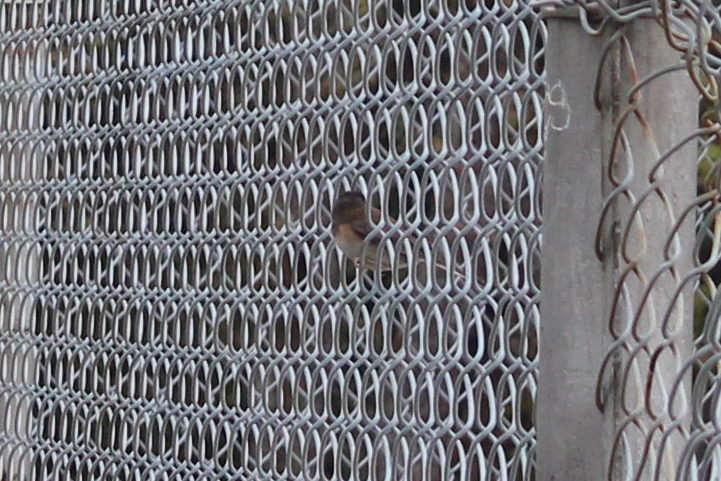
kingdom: Animalia
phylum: Chordata
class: Aves
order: Passeriformes
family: Passerellidae
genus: Junco
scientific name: Junco hyemalis
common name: Dark-eyed junco
